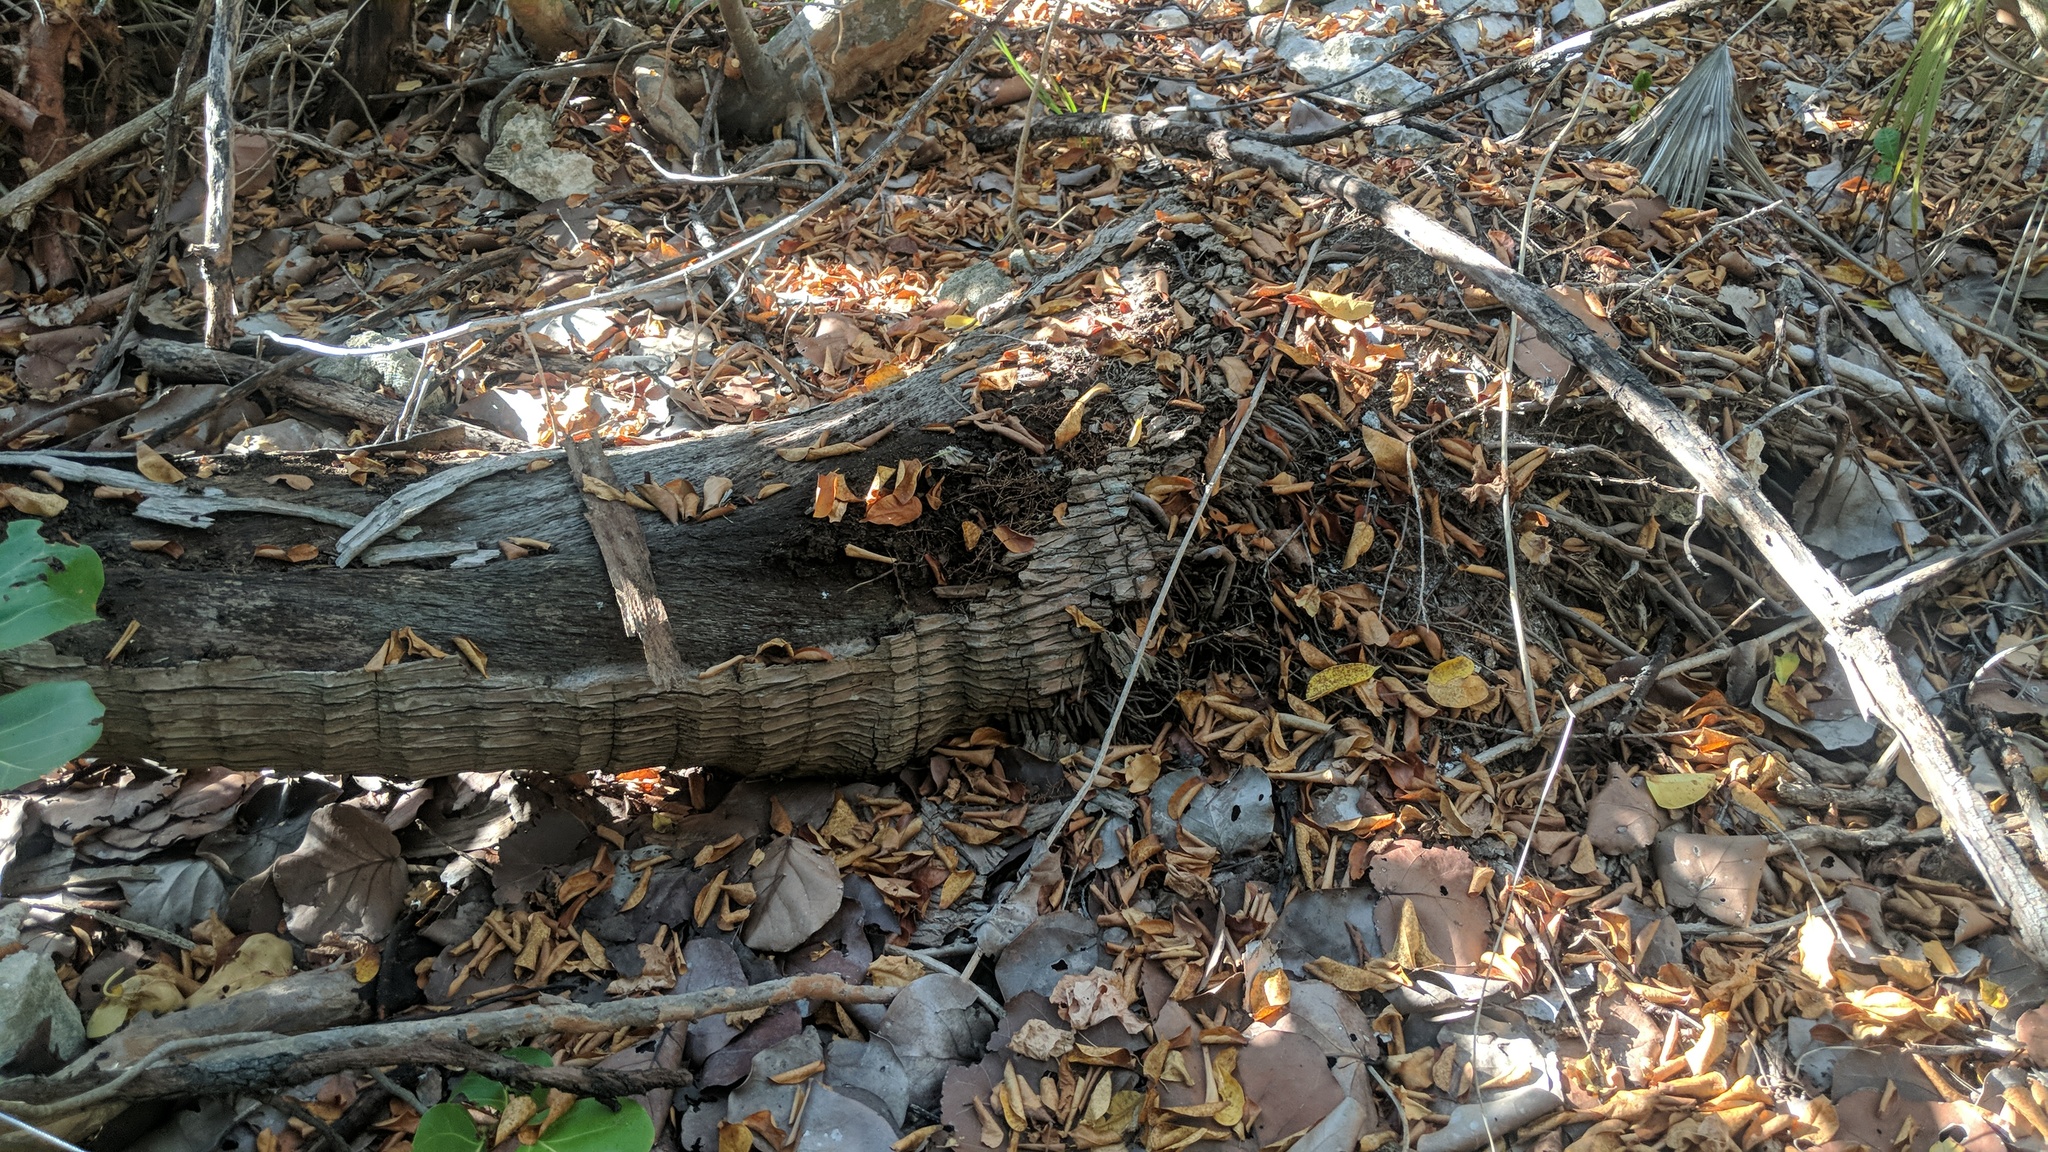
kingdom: Plantae
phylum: Tracheophyta
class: Liliopsida
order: Arecales
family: Arecaceae
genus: Cocos
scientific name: Cocos nucifera
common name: Coconut palm
